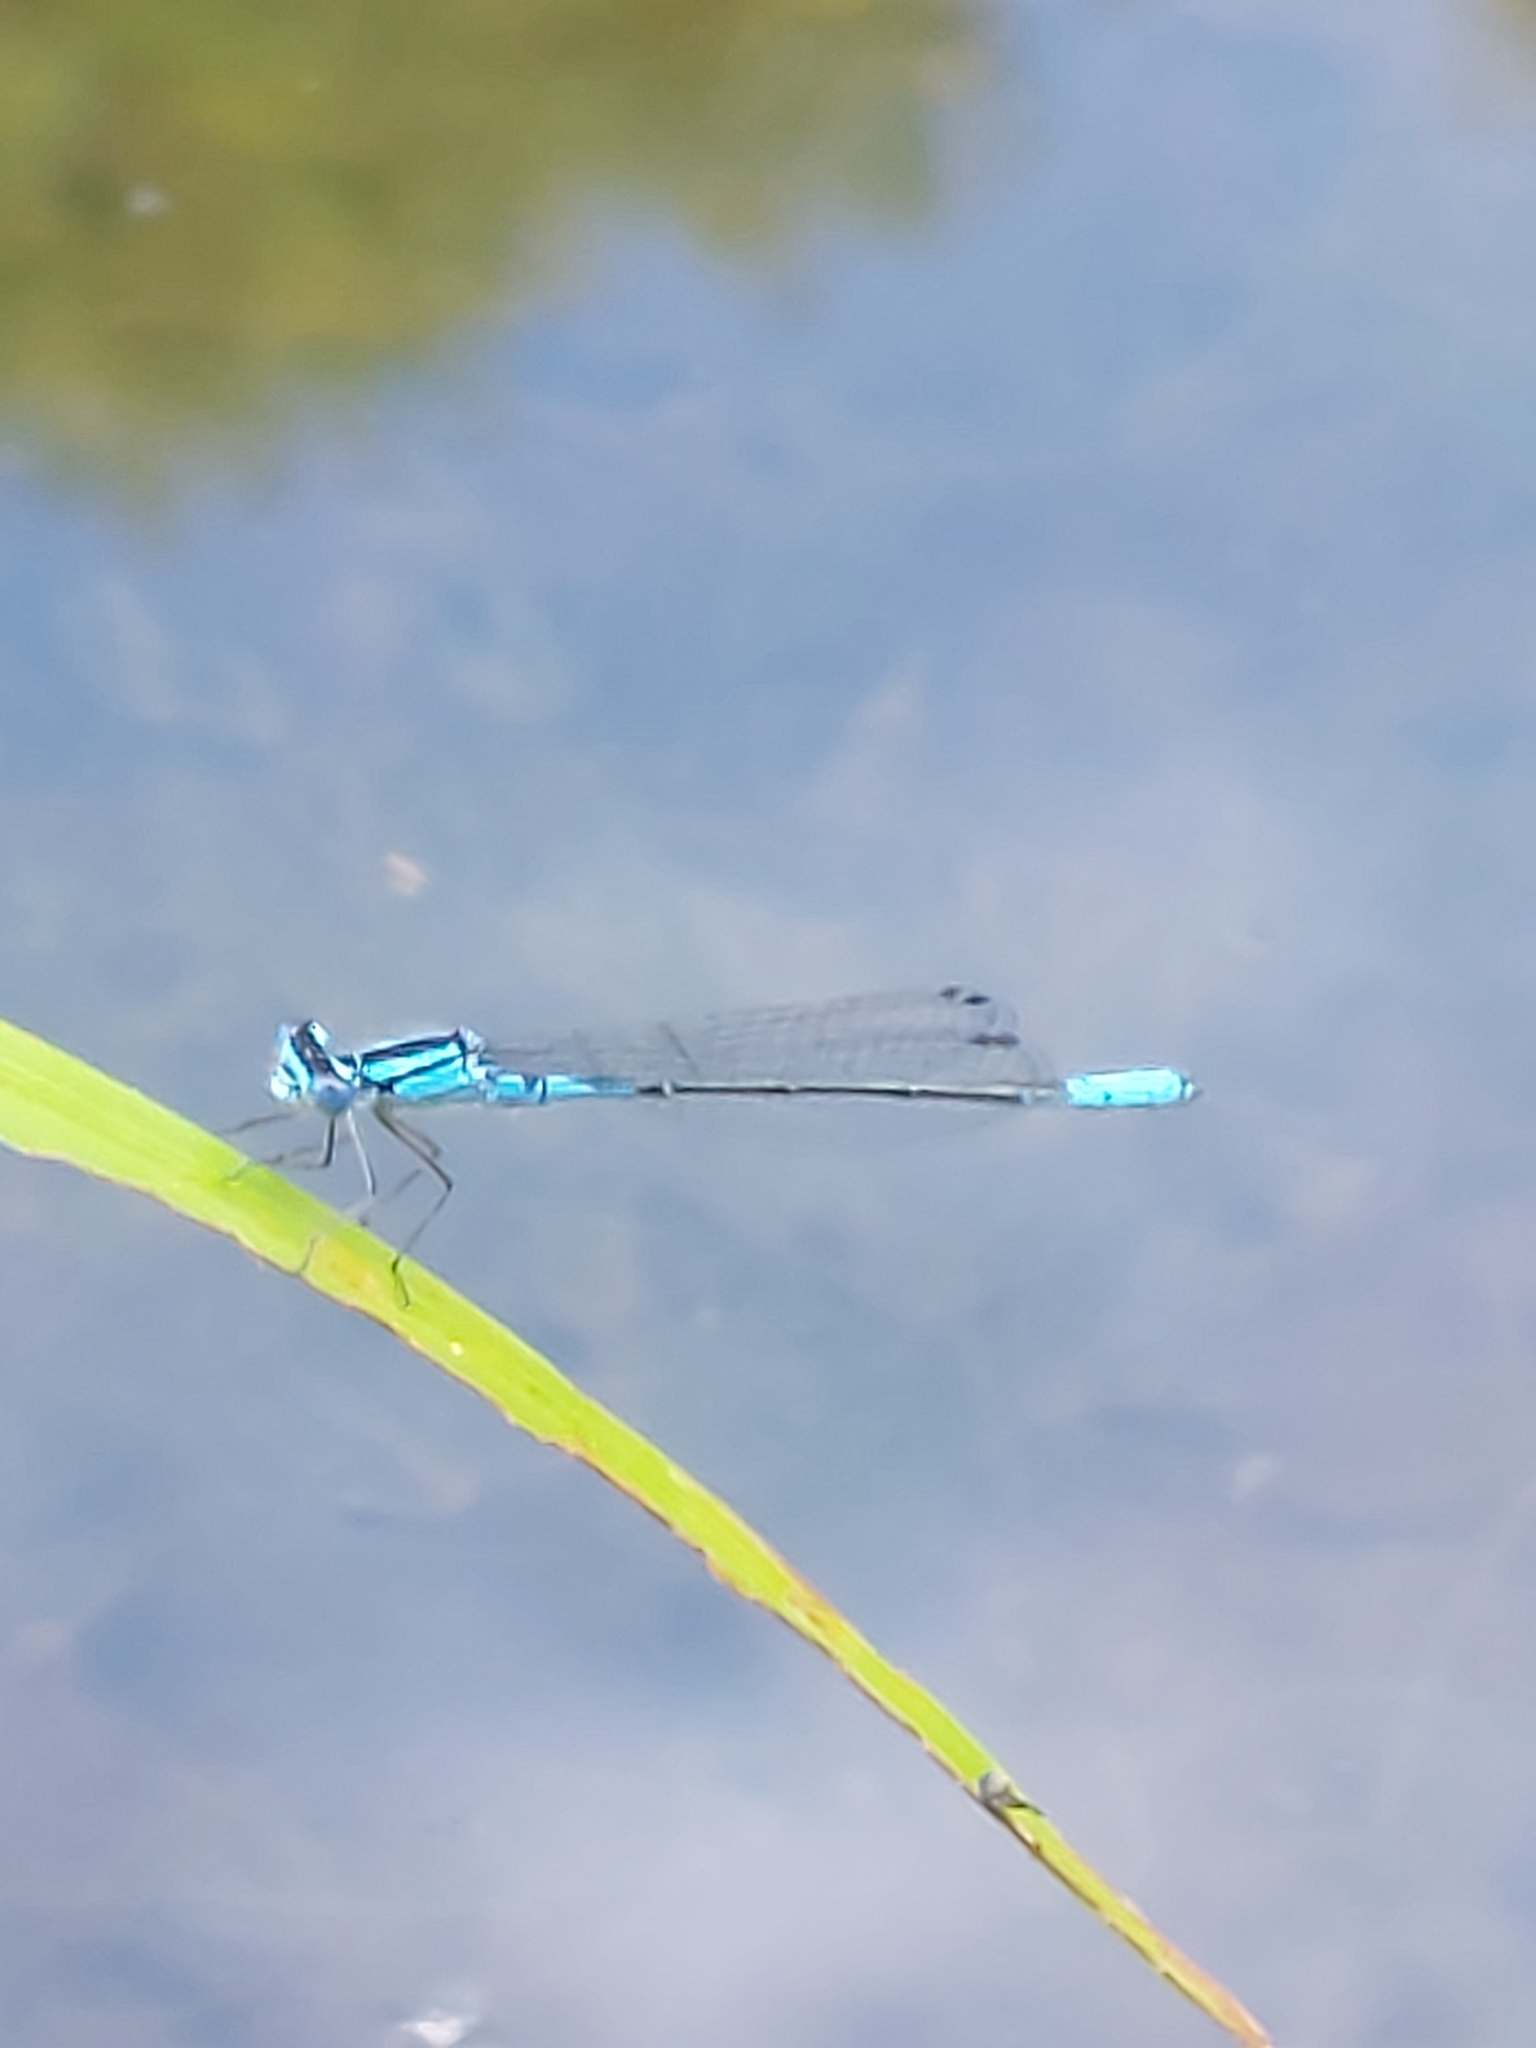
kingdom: Animalia
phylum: Arthropoda
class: Insecta
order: Odonata
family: Coenagrionidae
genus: Enallagma
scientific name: Enallagma aspersum
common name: Azure bluet
